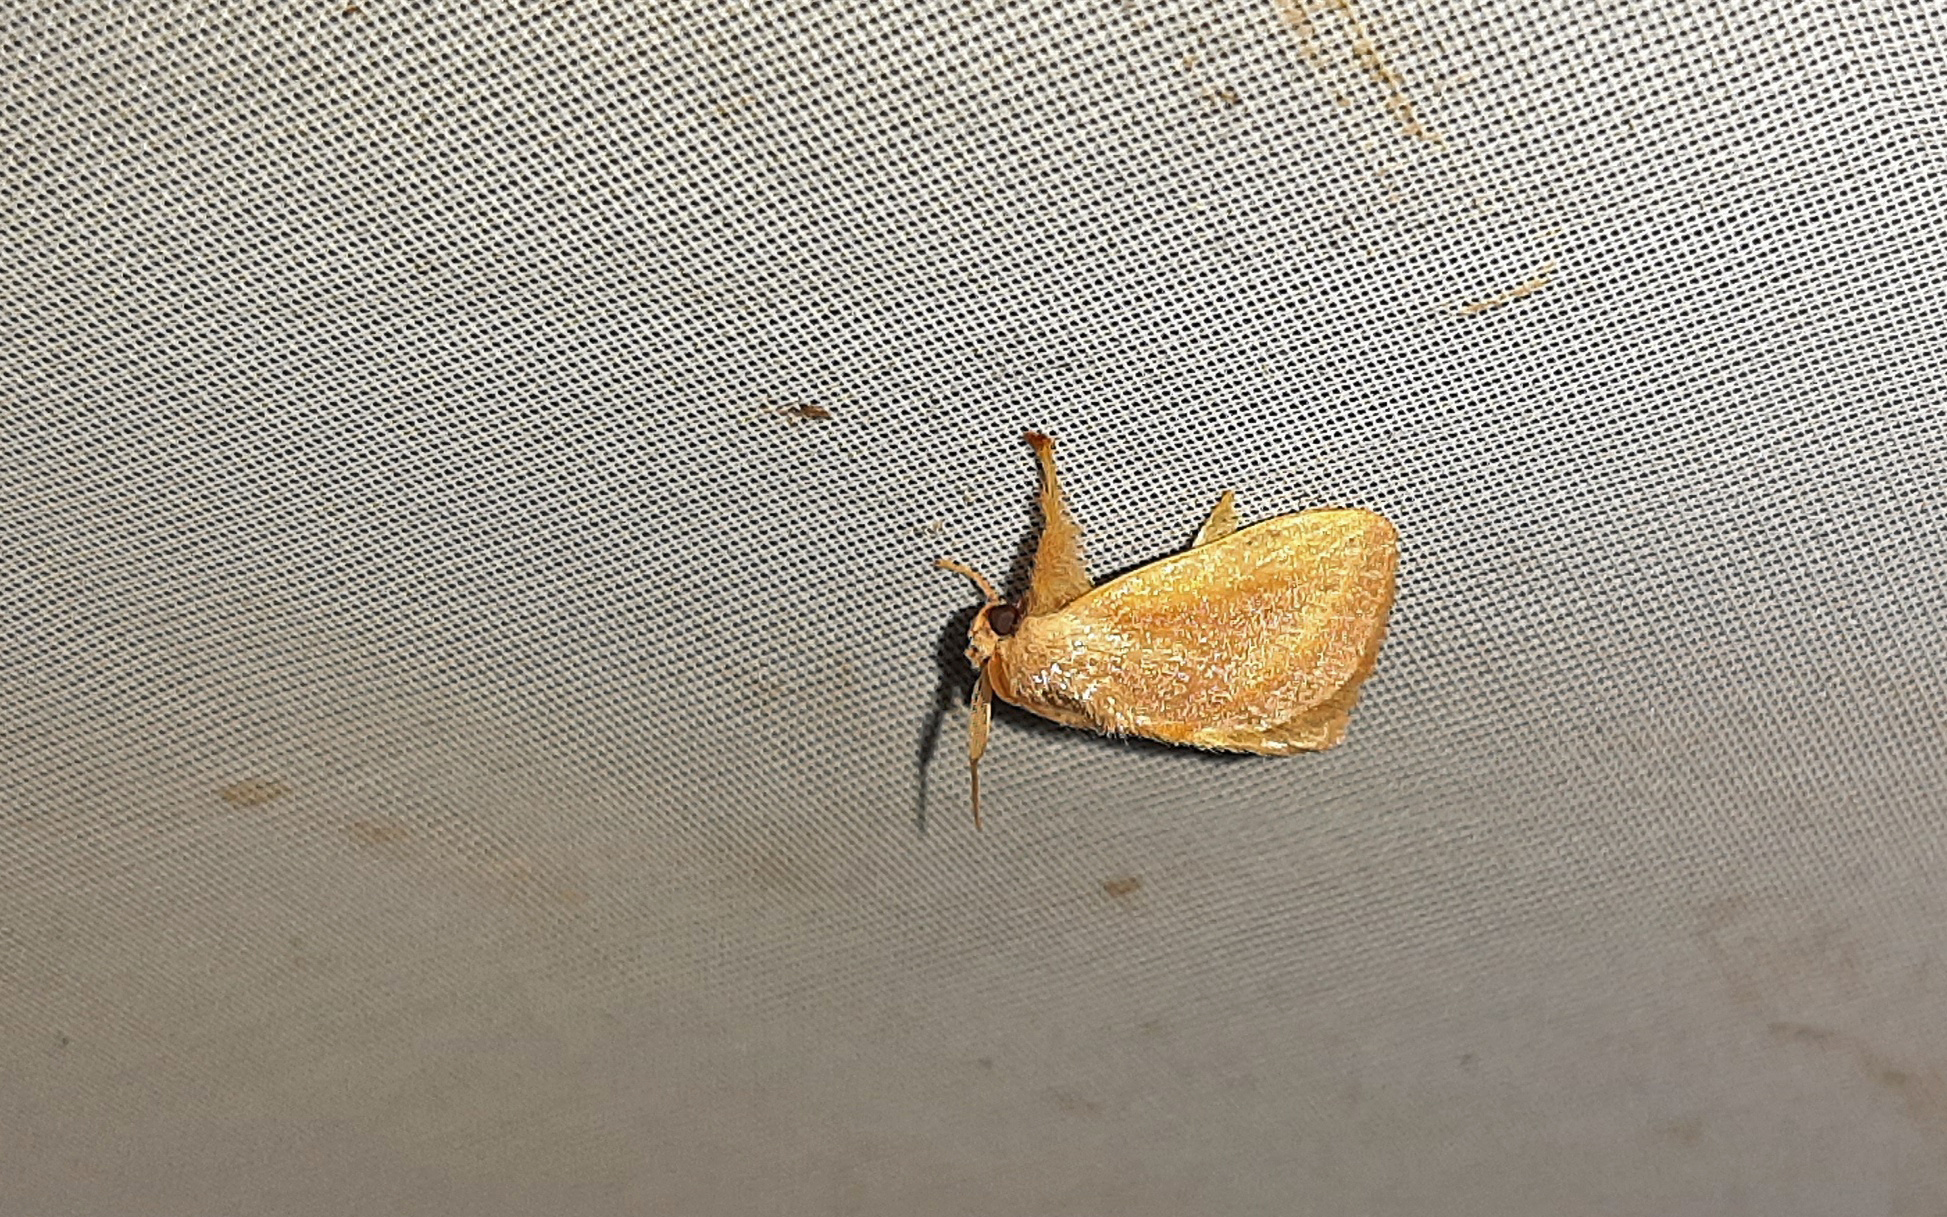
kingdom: Animalia
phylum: Arthropoda
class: Insecta
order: Lepidoptera
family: Limacodidae
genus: Euclea
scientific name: Euclea aethes
